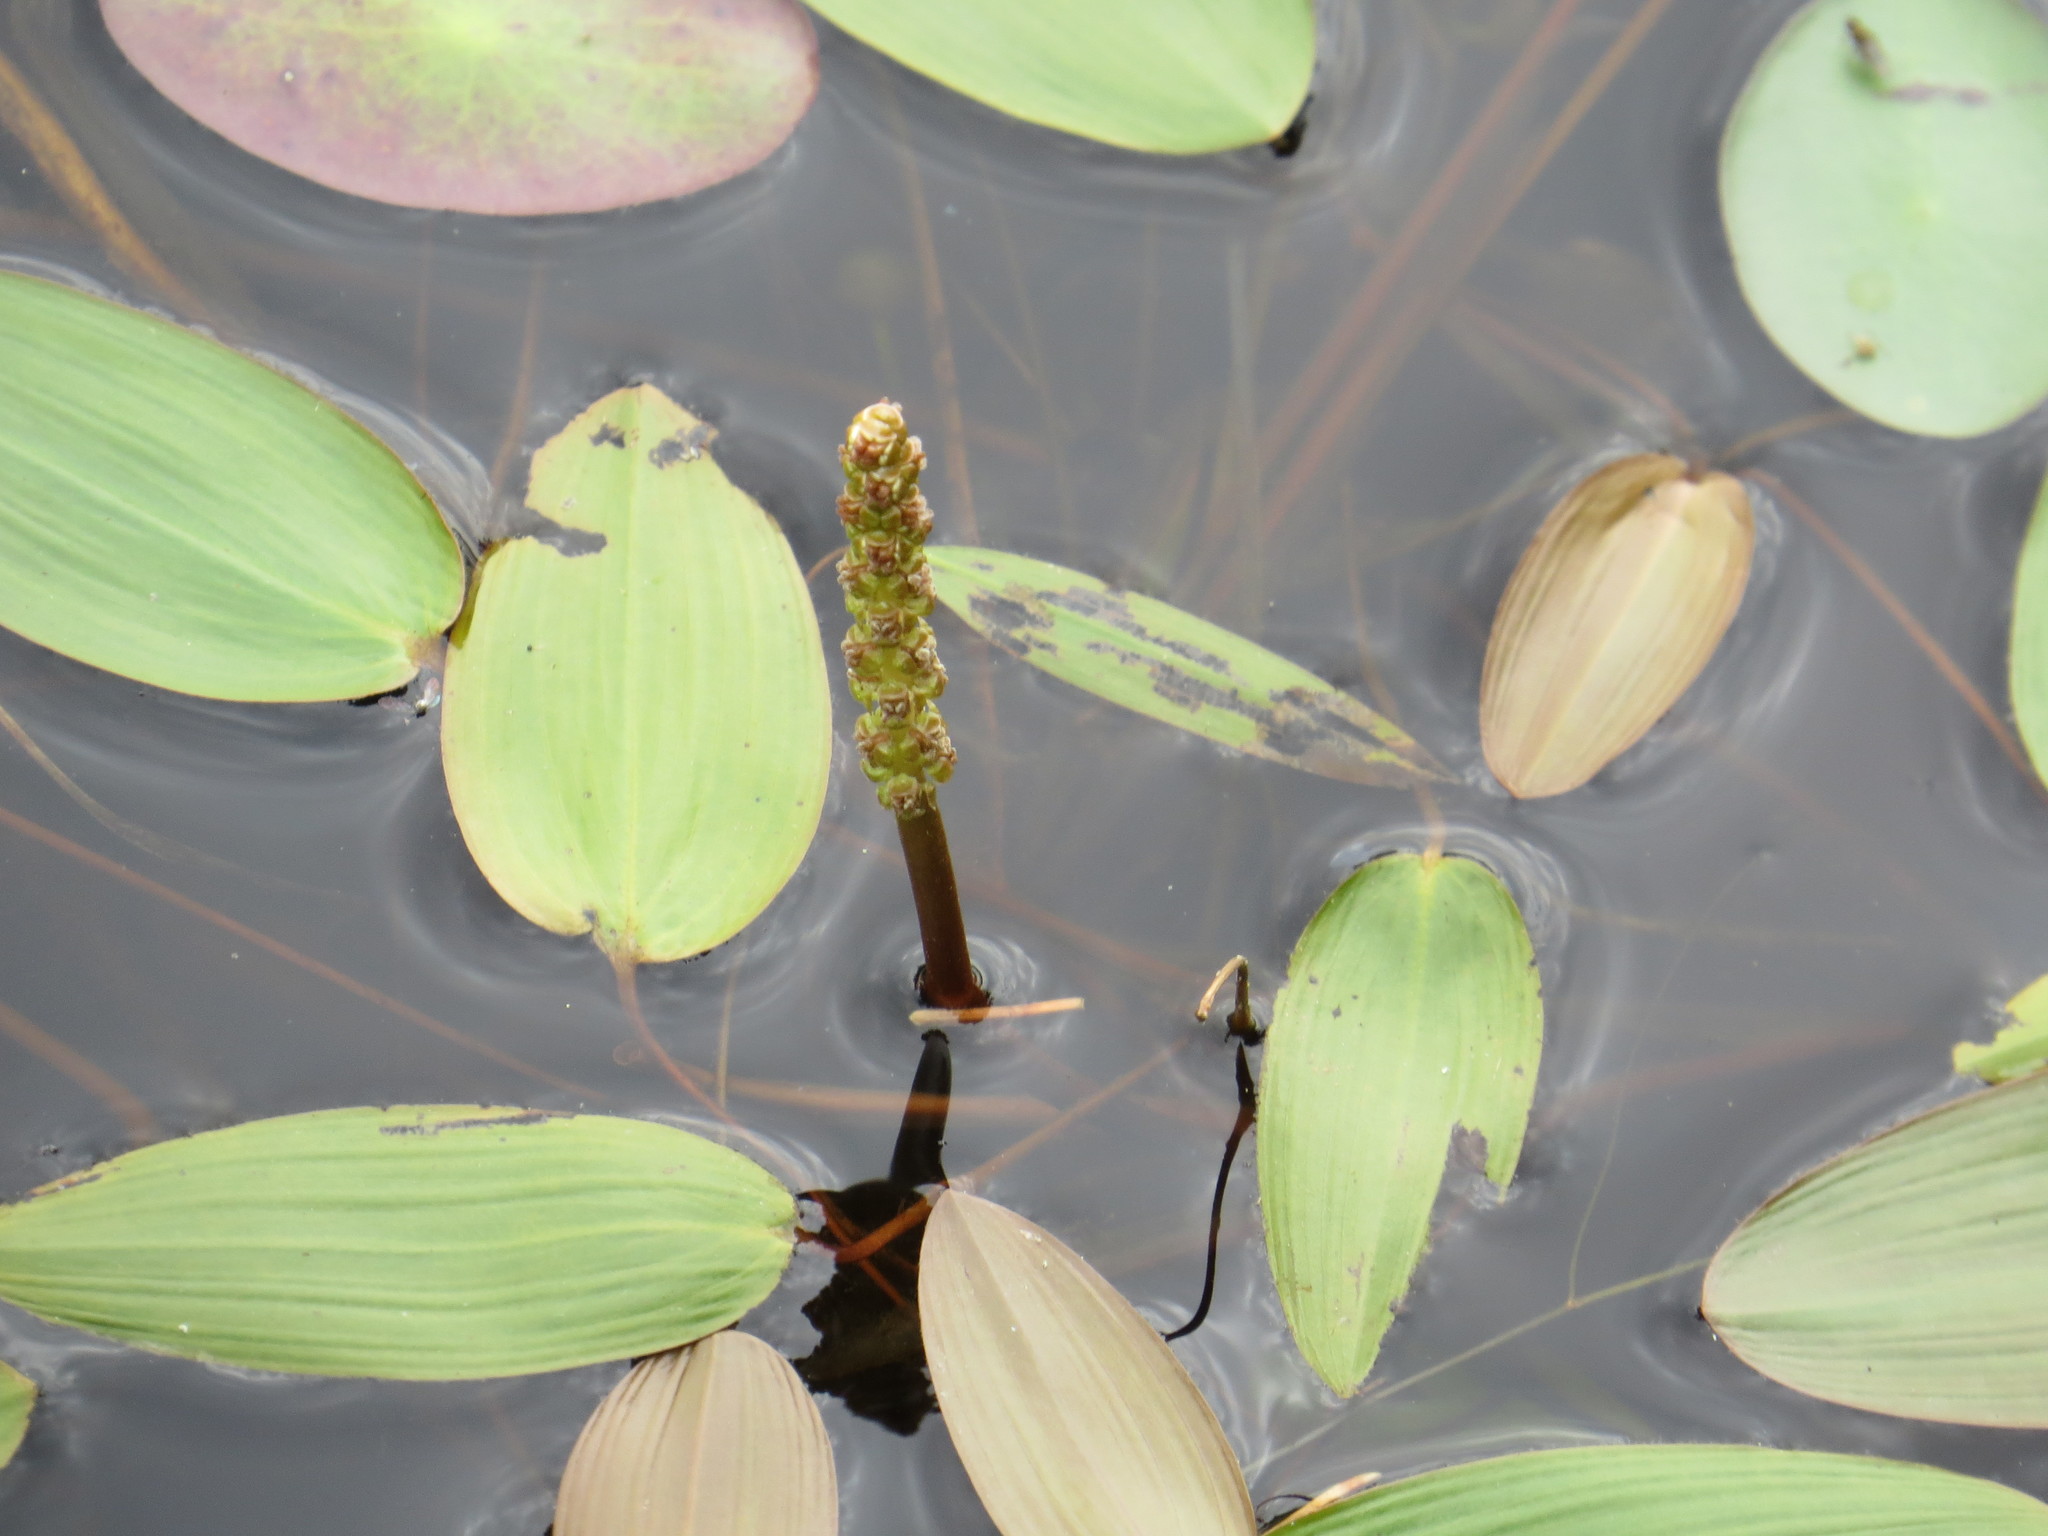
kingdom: Plantae
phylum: Tracheophyta
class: Liliopsida
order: Alismatales
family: Potamogetonaceae
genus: Potamogeton
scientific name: Potamogeton natans
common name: Broad-leaved pondweed
